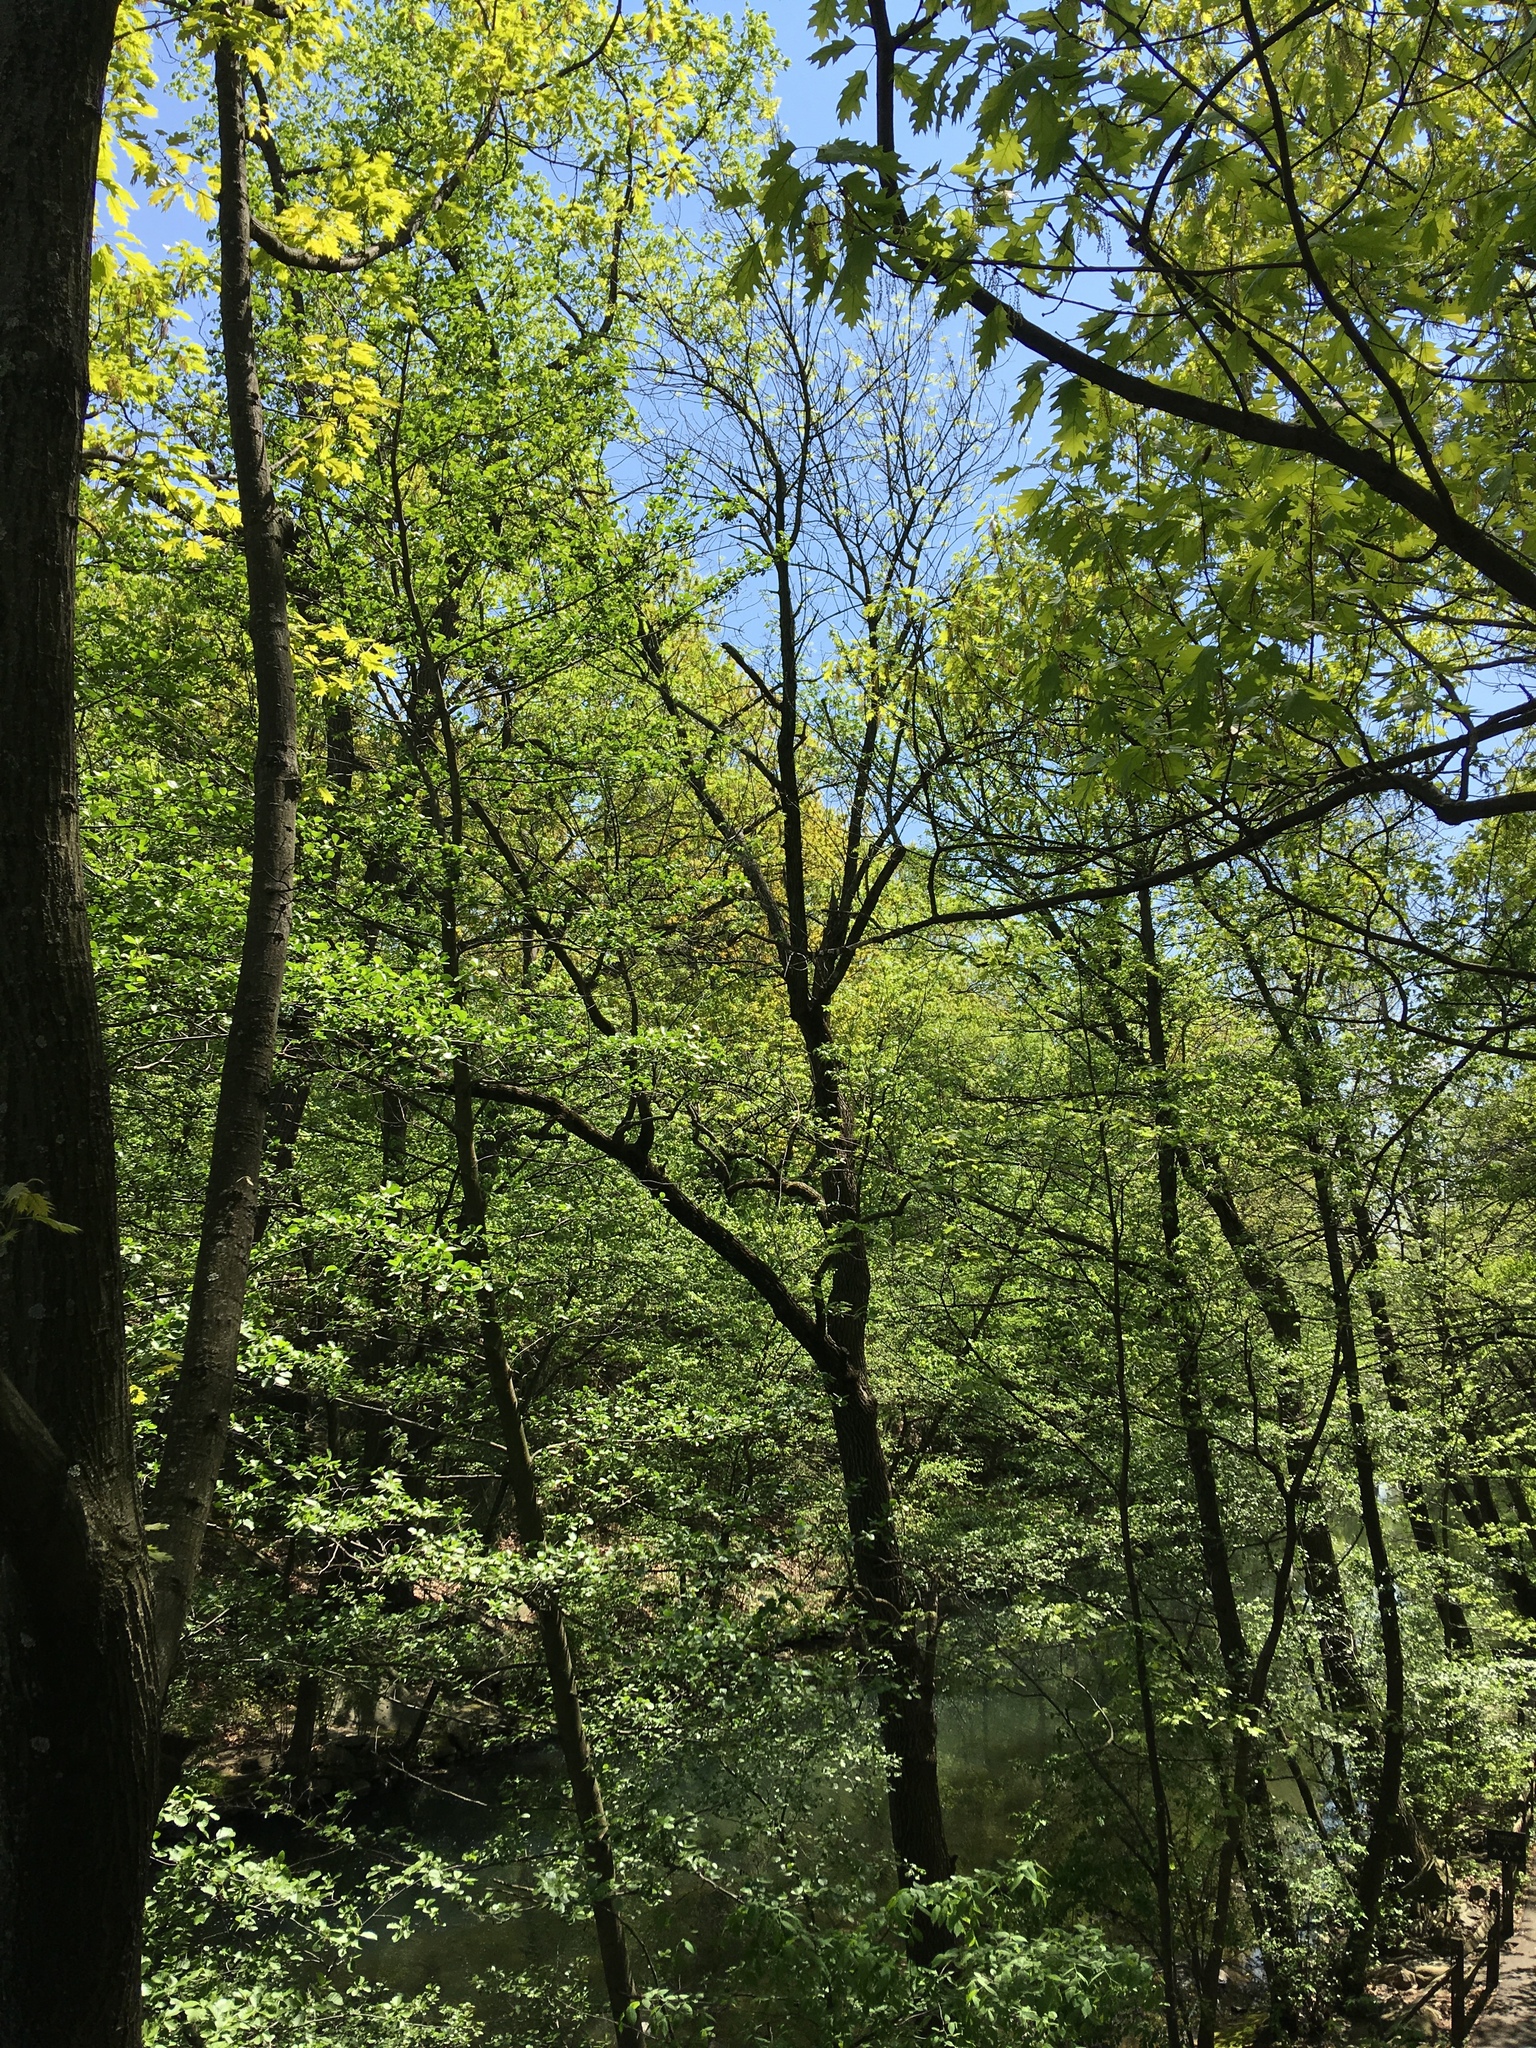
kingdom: Plantae
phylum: Tracheophyta
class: Magnoliopsida
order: Lamiales
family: Oleaceae
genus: Fraxinus
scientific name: Fraxinus profunda
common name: Pumpkin ash
